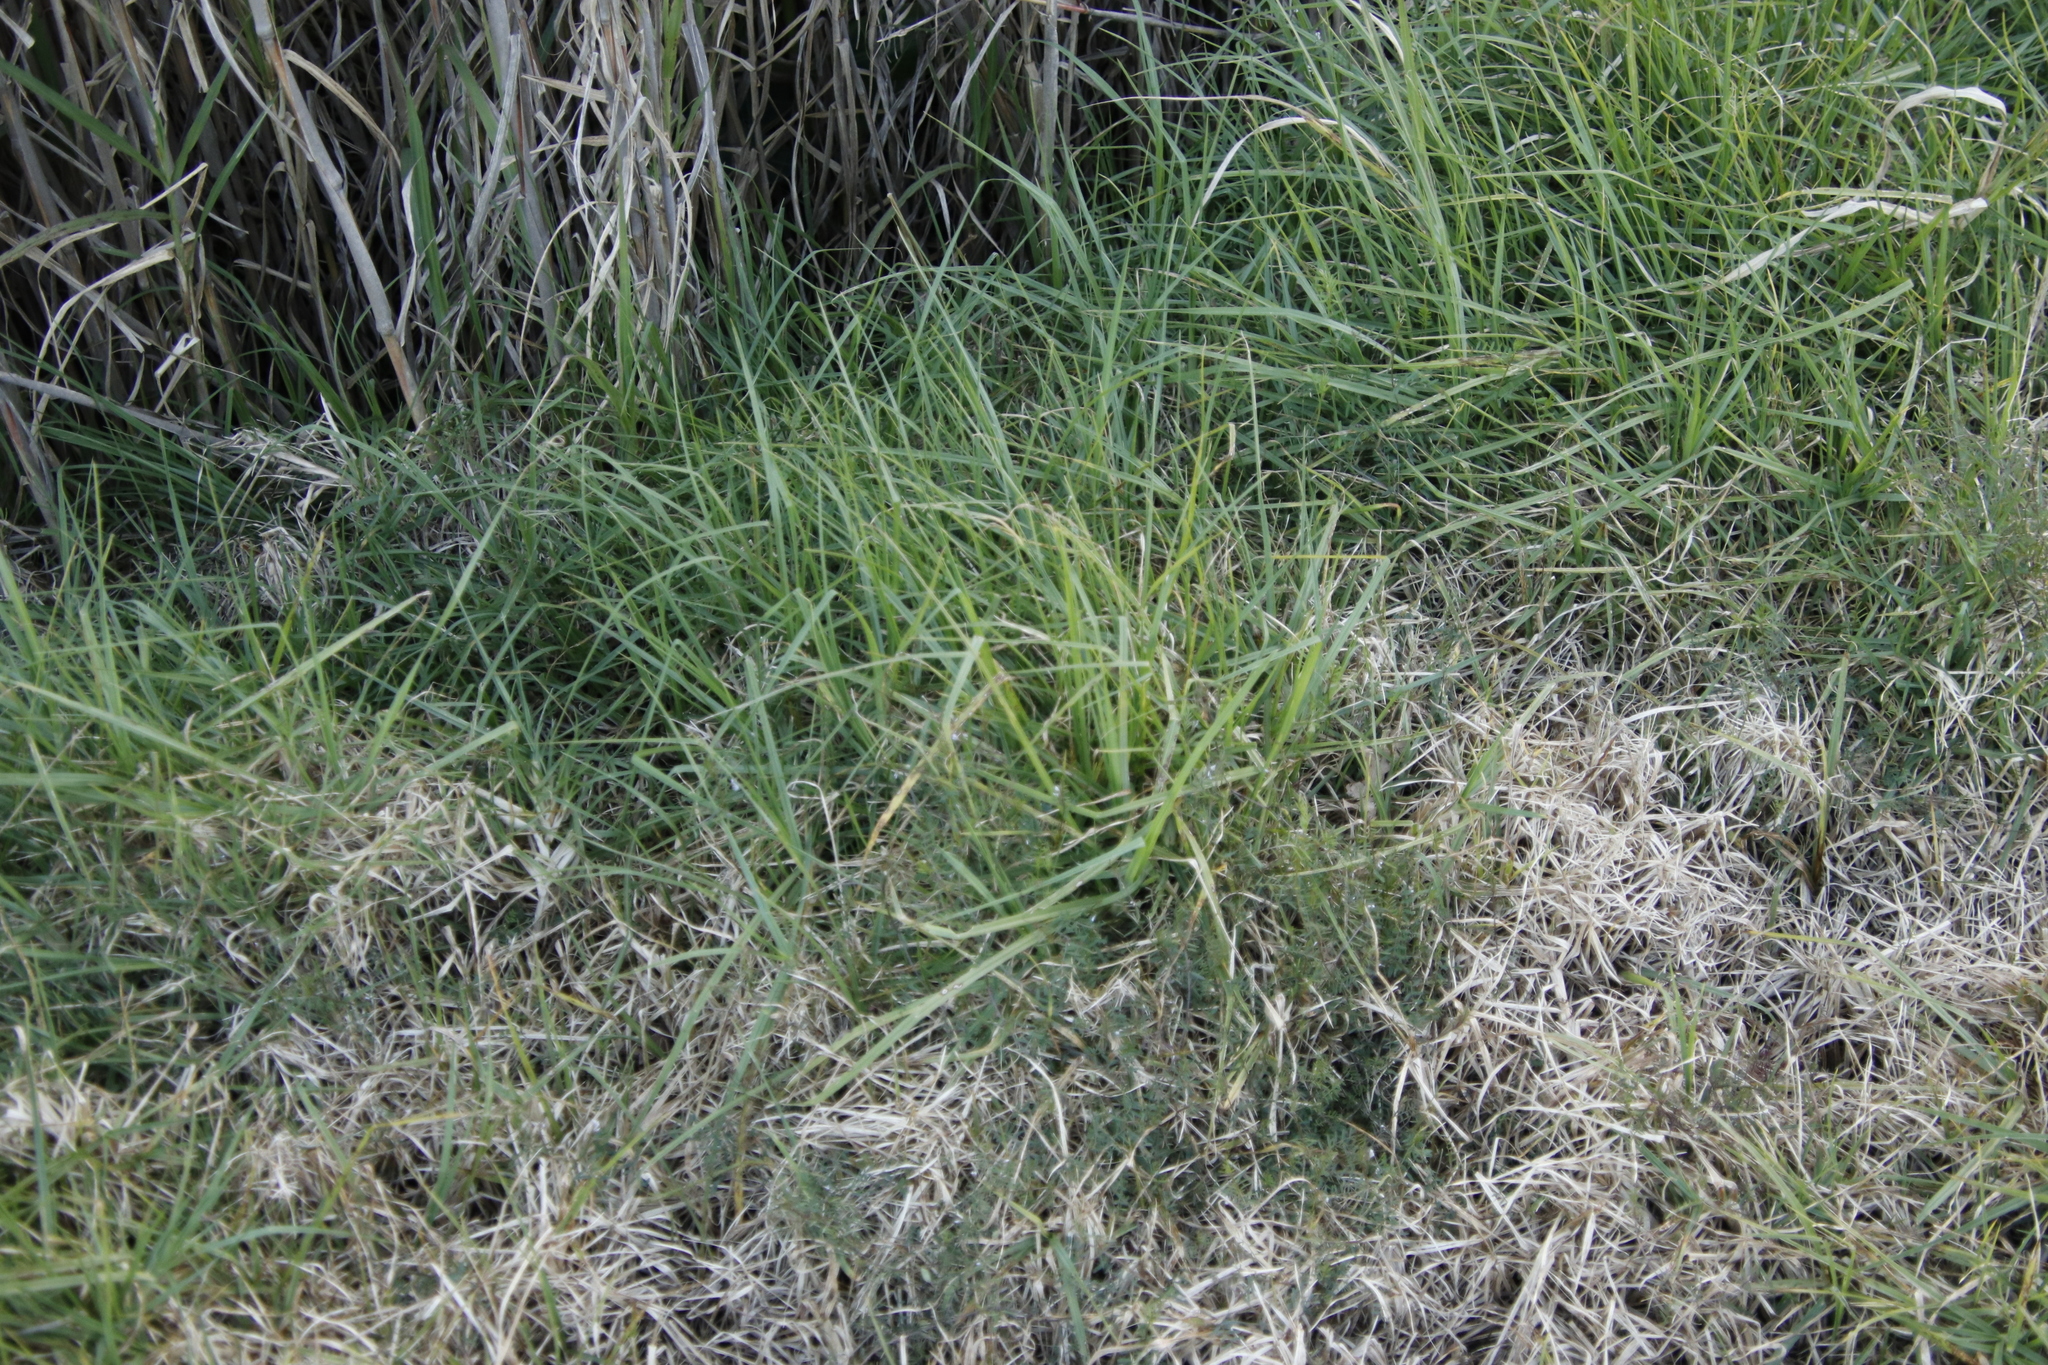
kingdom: Plantae
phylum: Tracheophyta
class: Liliopsida
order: Poales
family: Poaceae
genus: Cenchrus
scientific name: Cenchrus clandestinus
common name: Kikuyugrass
